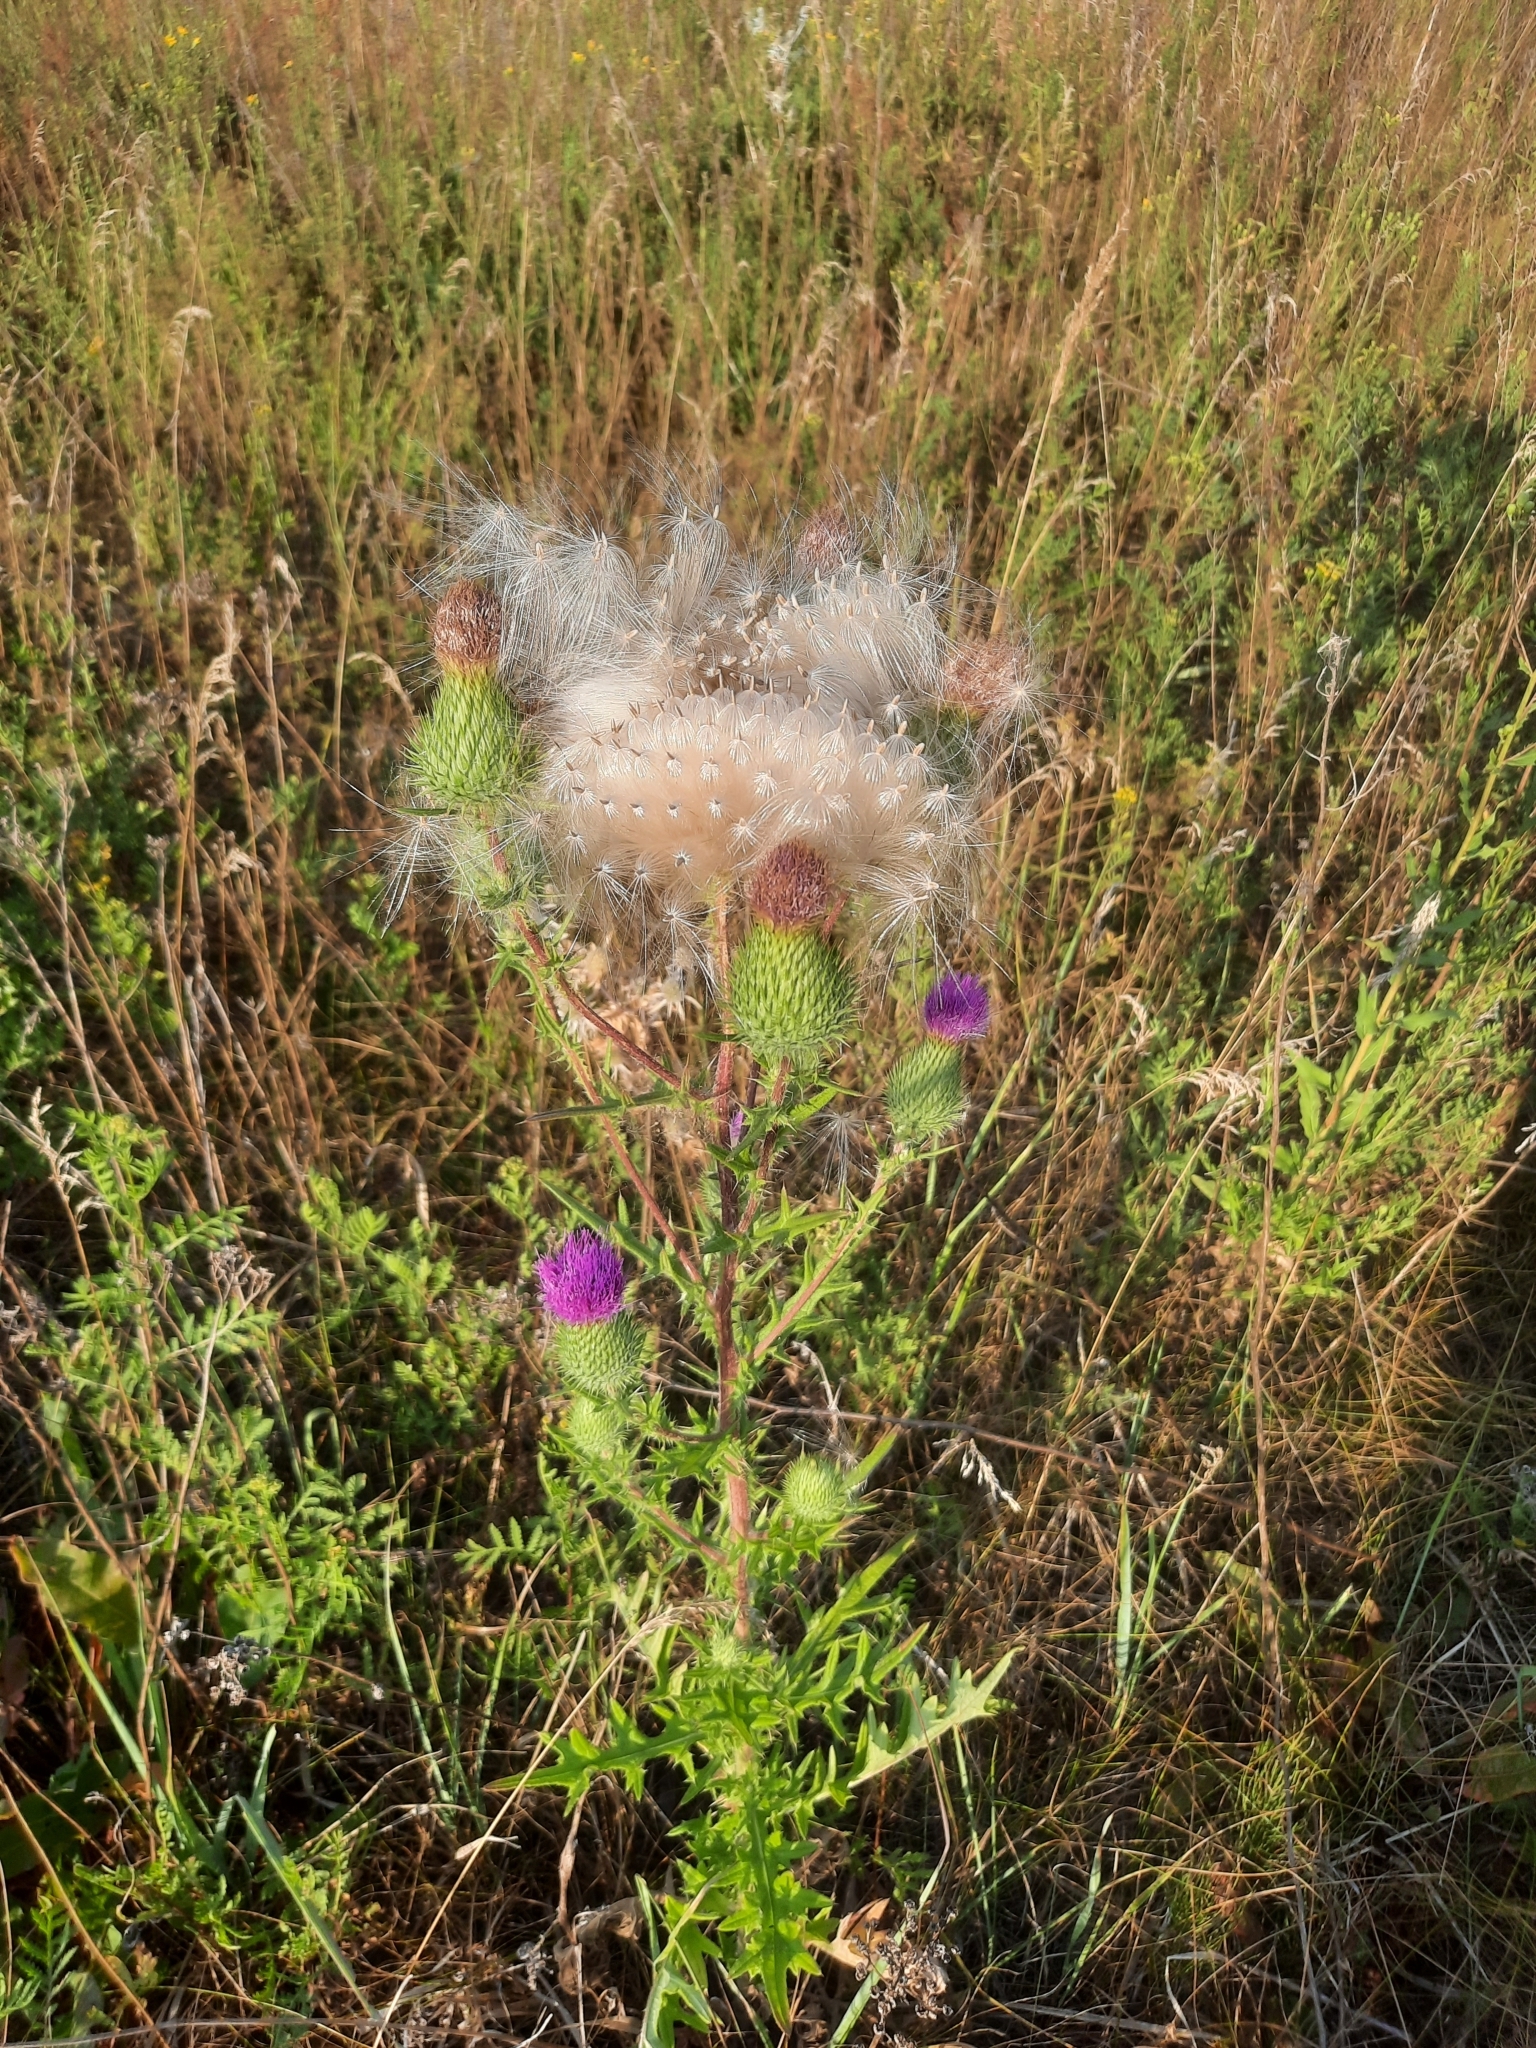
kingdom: Plantae
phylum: Tracheophyta
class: Magnoliopsida
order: Asterales
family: Asteraceae
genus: Cirsium
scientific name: Cirsium vulgare
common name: Bull thistle
